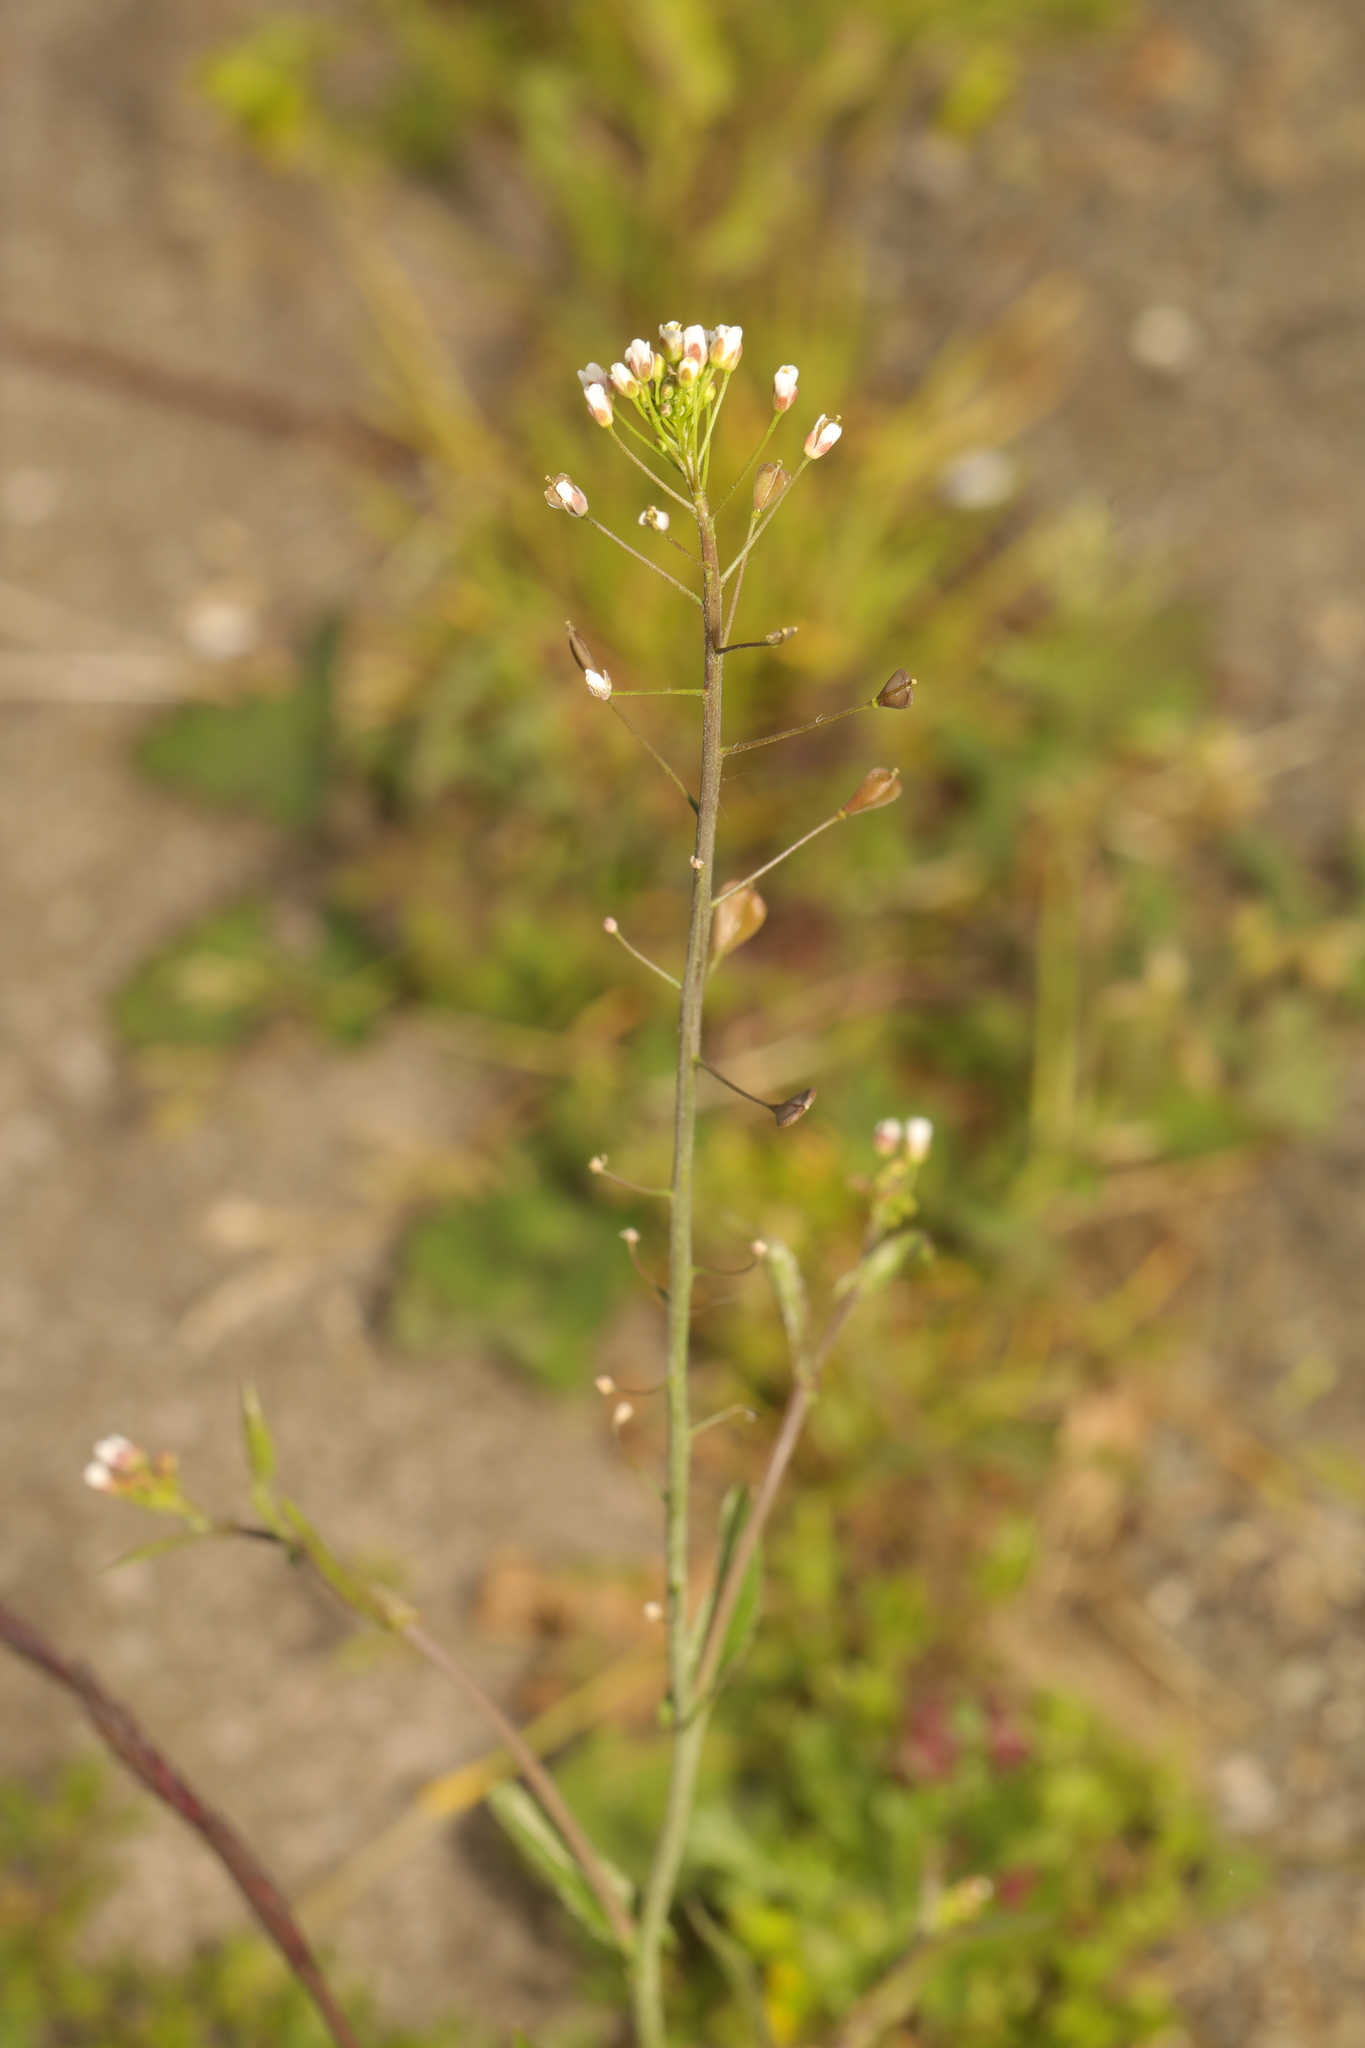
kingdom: Plantae
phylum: Tracheophyta
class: Magnoliopsida
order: Brassicales
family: Brassicaceae
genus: Capsella
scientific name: Capsella bursa-pastoris
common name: Shepherd's purse
